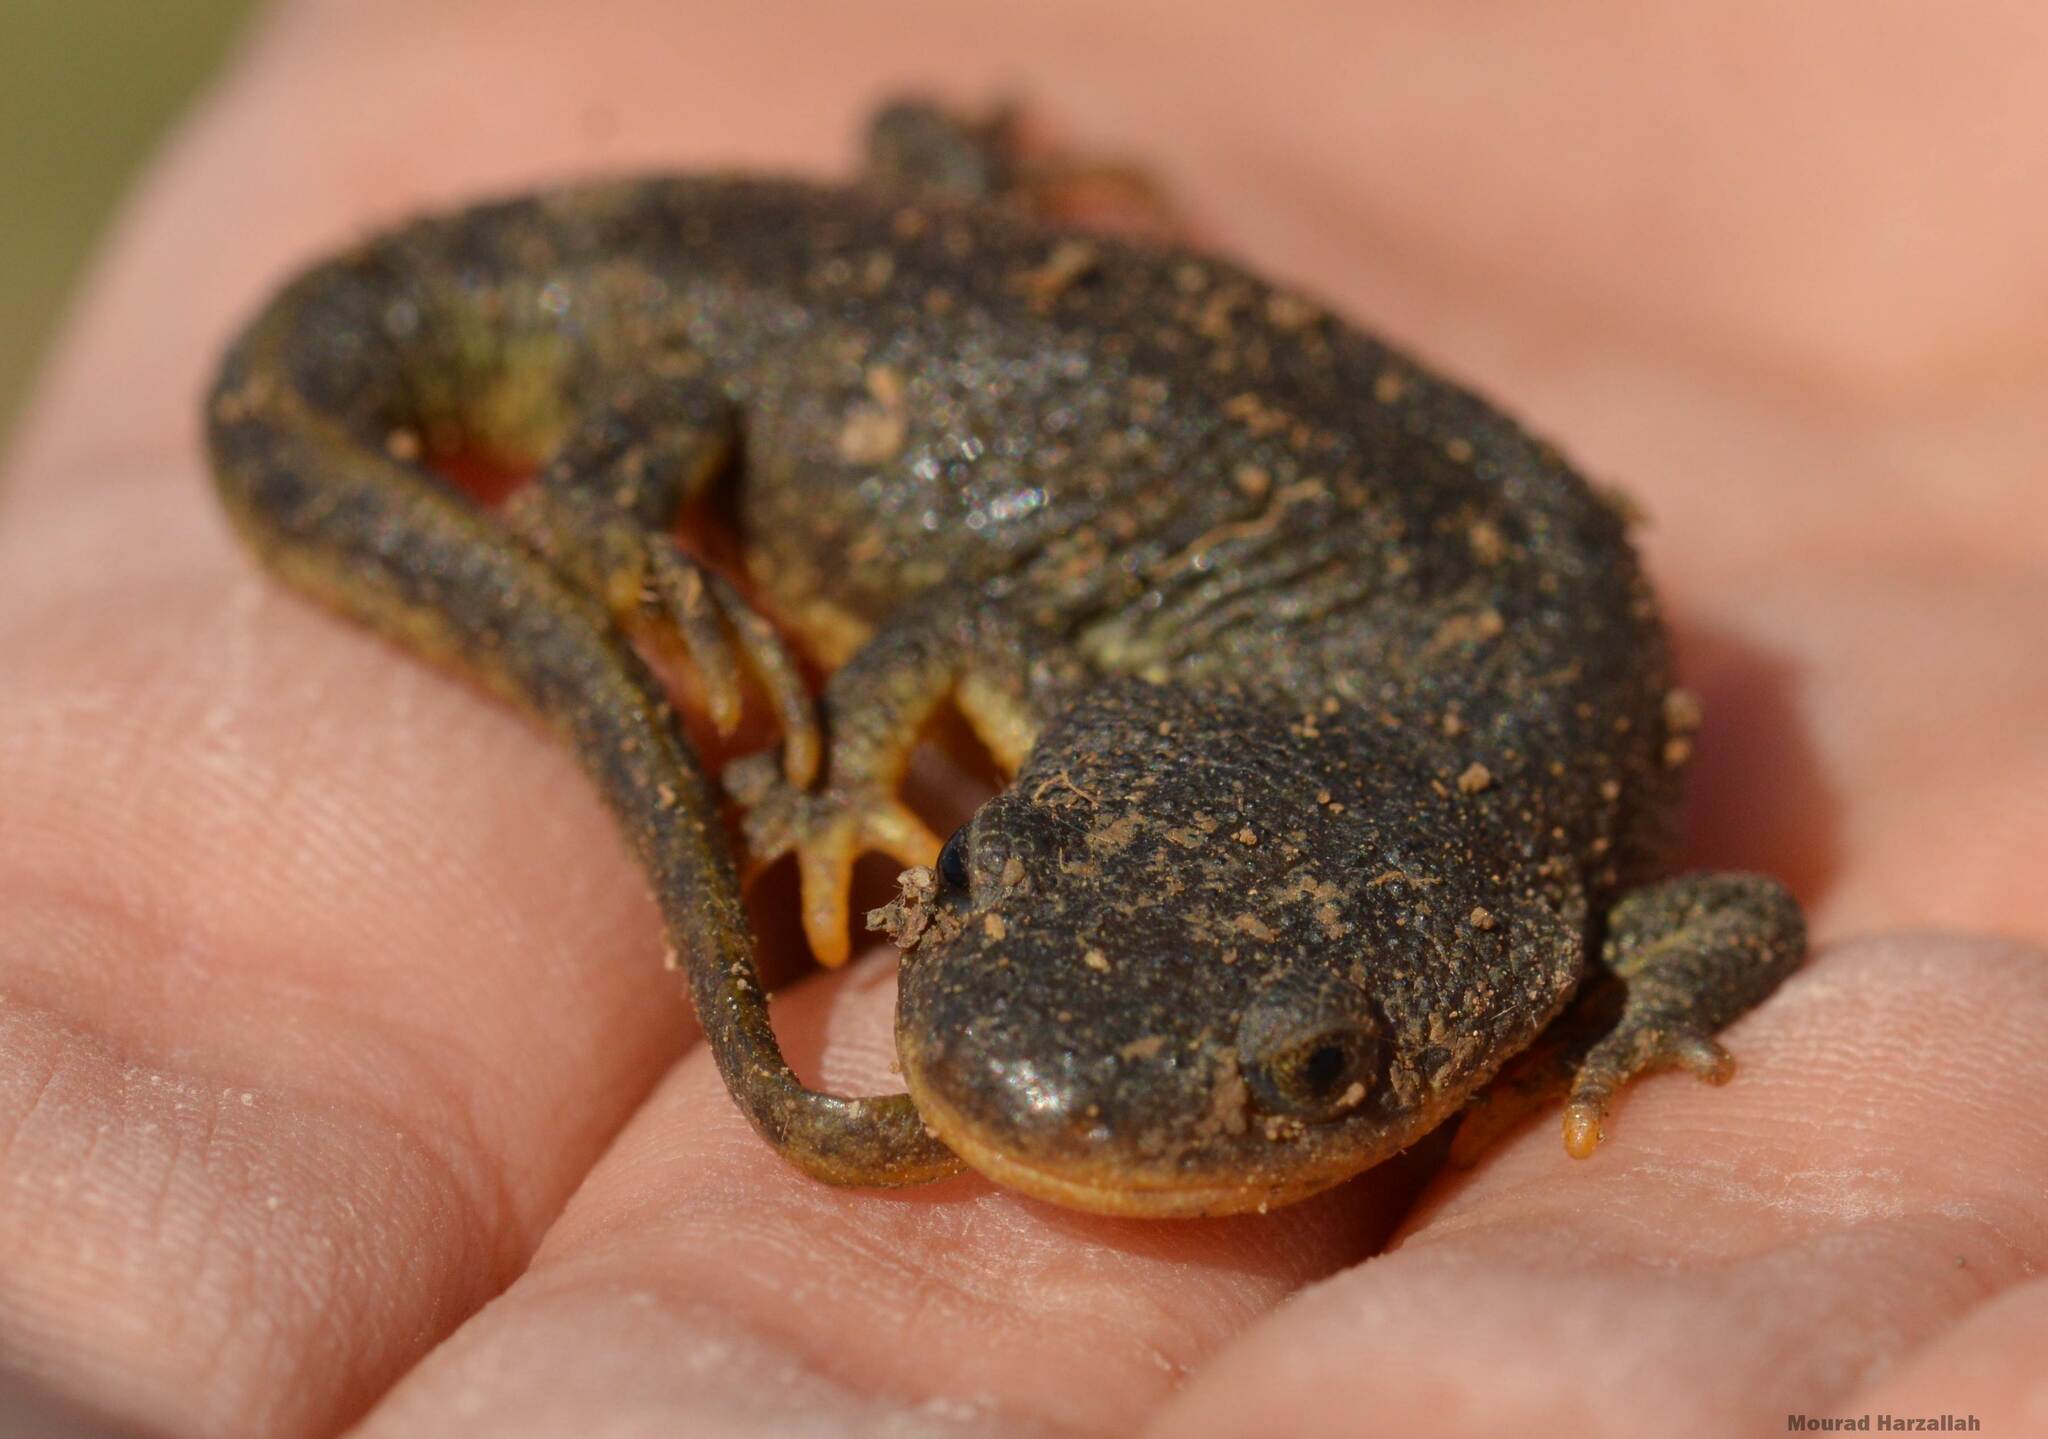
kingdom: Animalia
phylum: Chordata
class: Amphibia
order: Caudata
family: Salamandridae
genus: Pleurodeles
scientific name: Pleurodeles nebulosus
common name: Algerian ribbed newt
